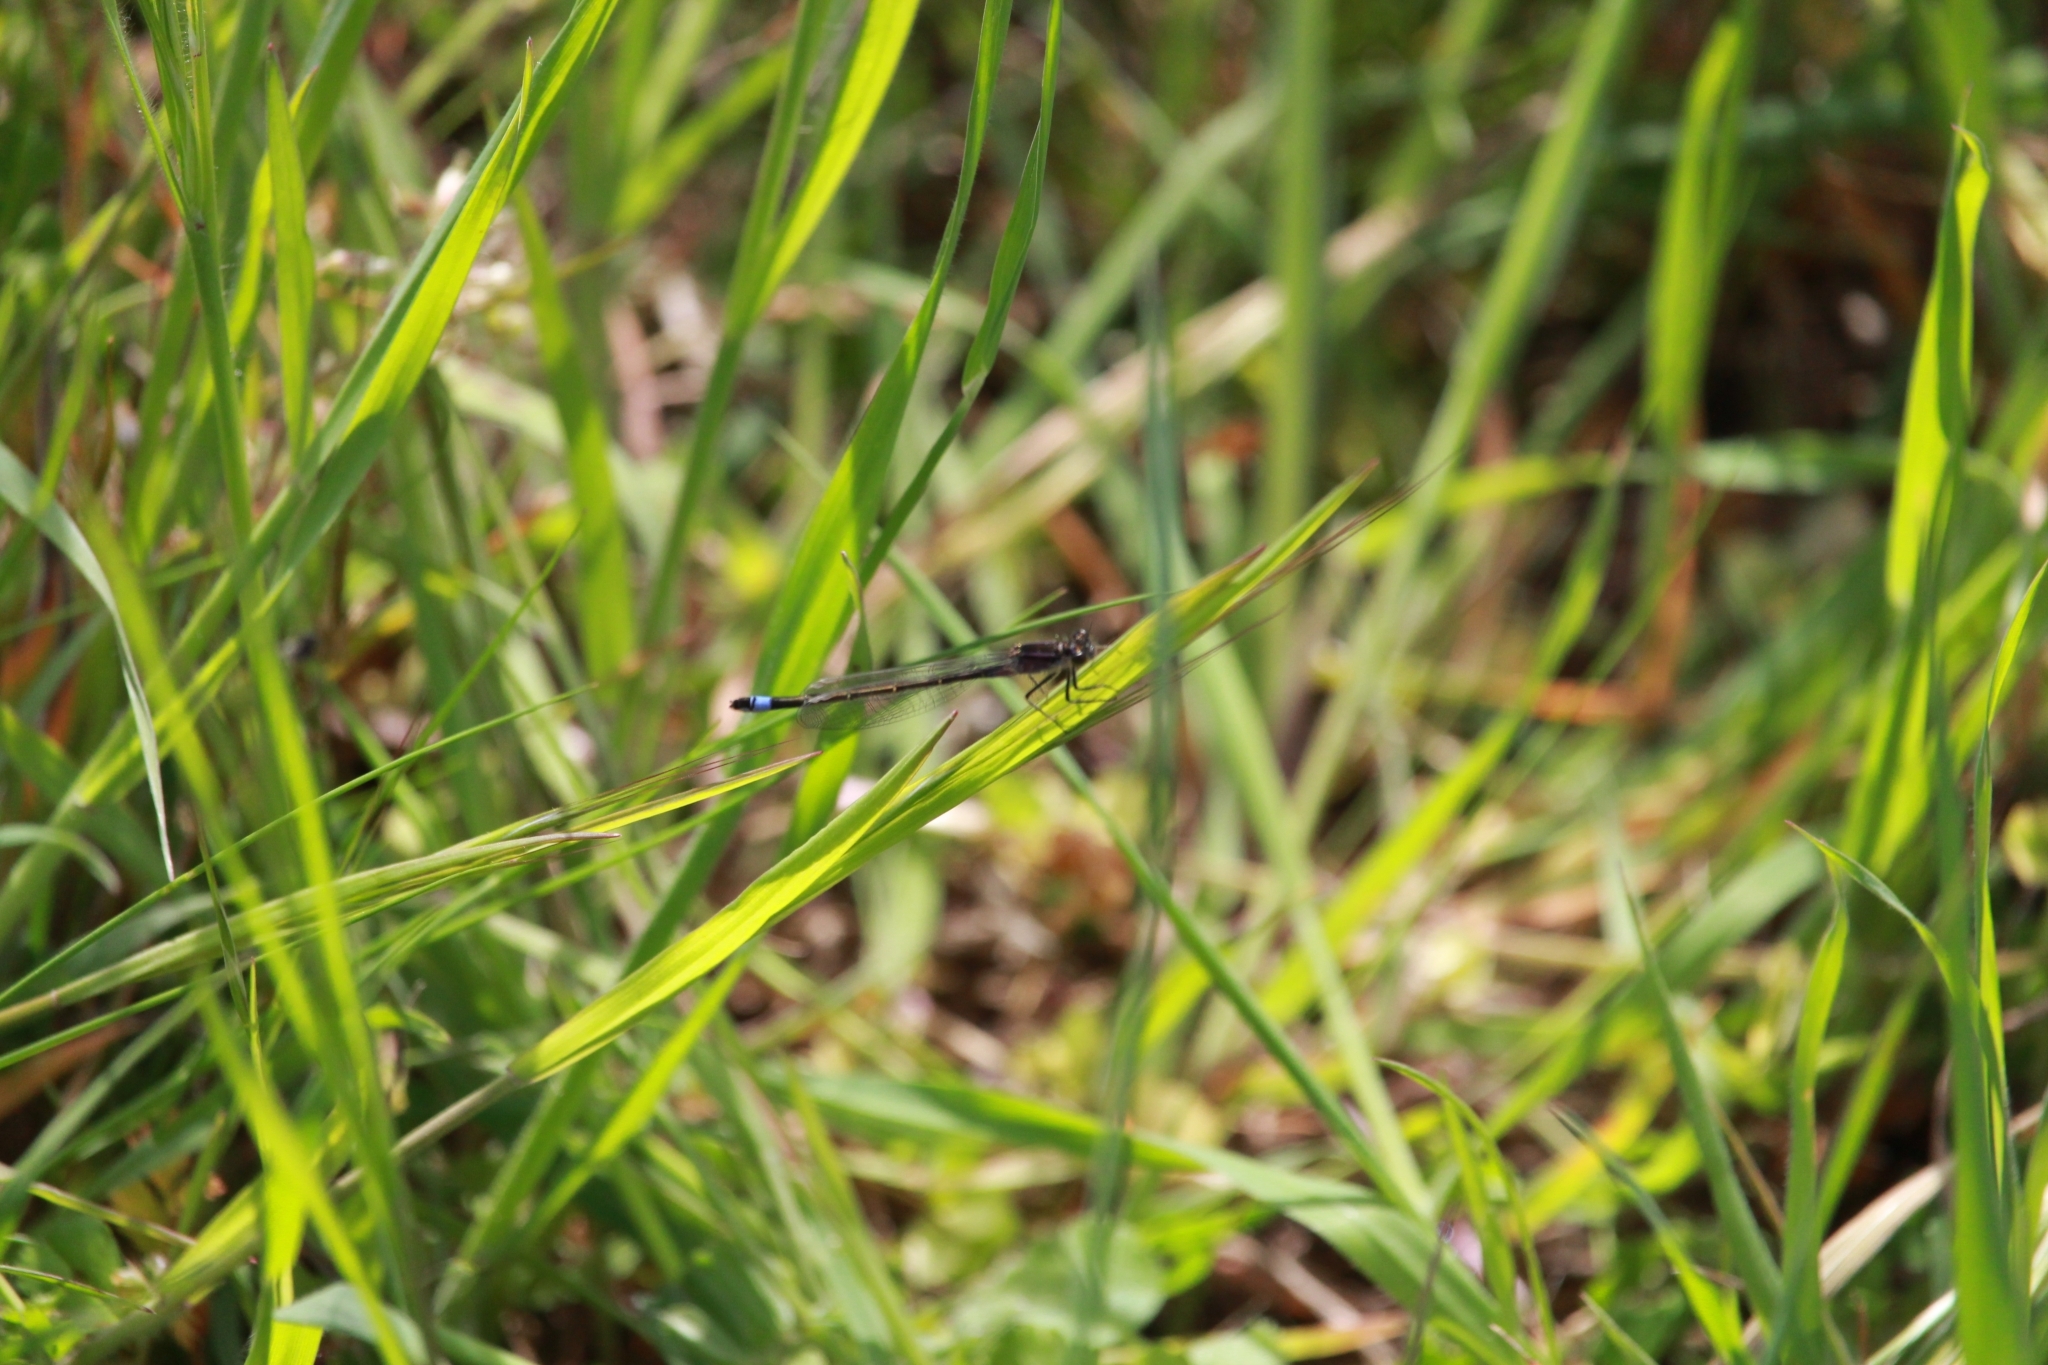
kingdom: Animalia
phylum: Arthropoda
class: Insecta
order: Odonata
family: Coenagrionidae
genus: Ischnura
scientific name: Ischnura elegans
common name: Blue-tailed damselfly
